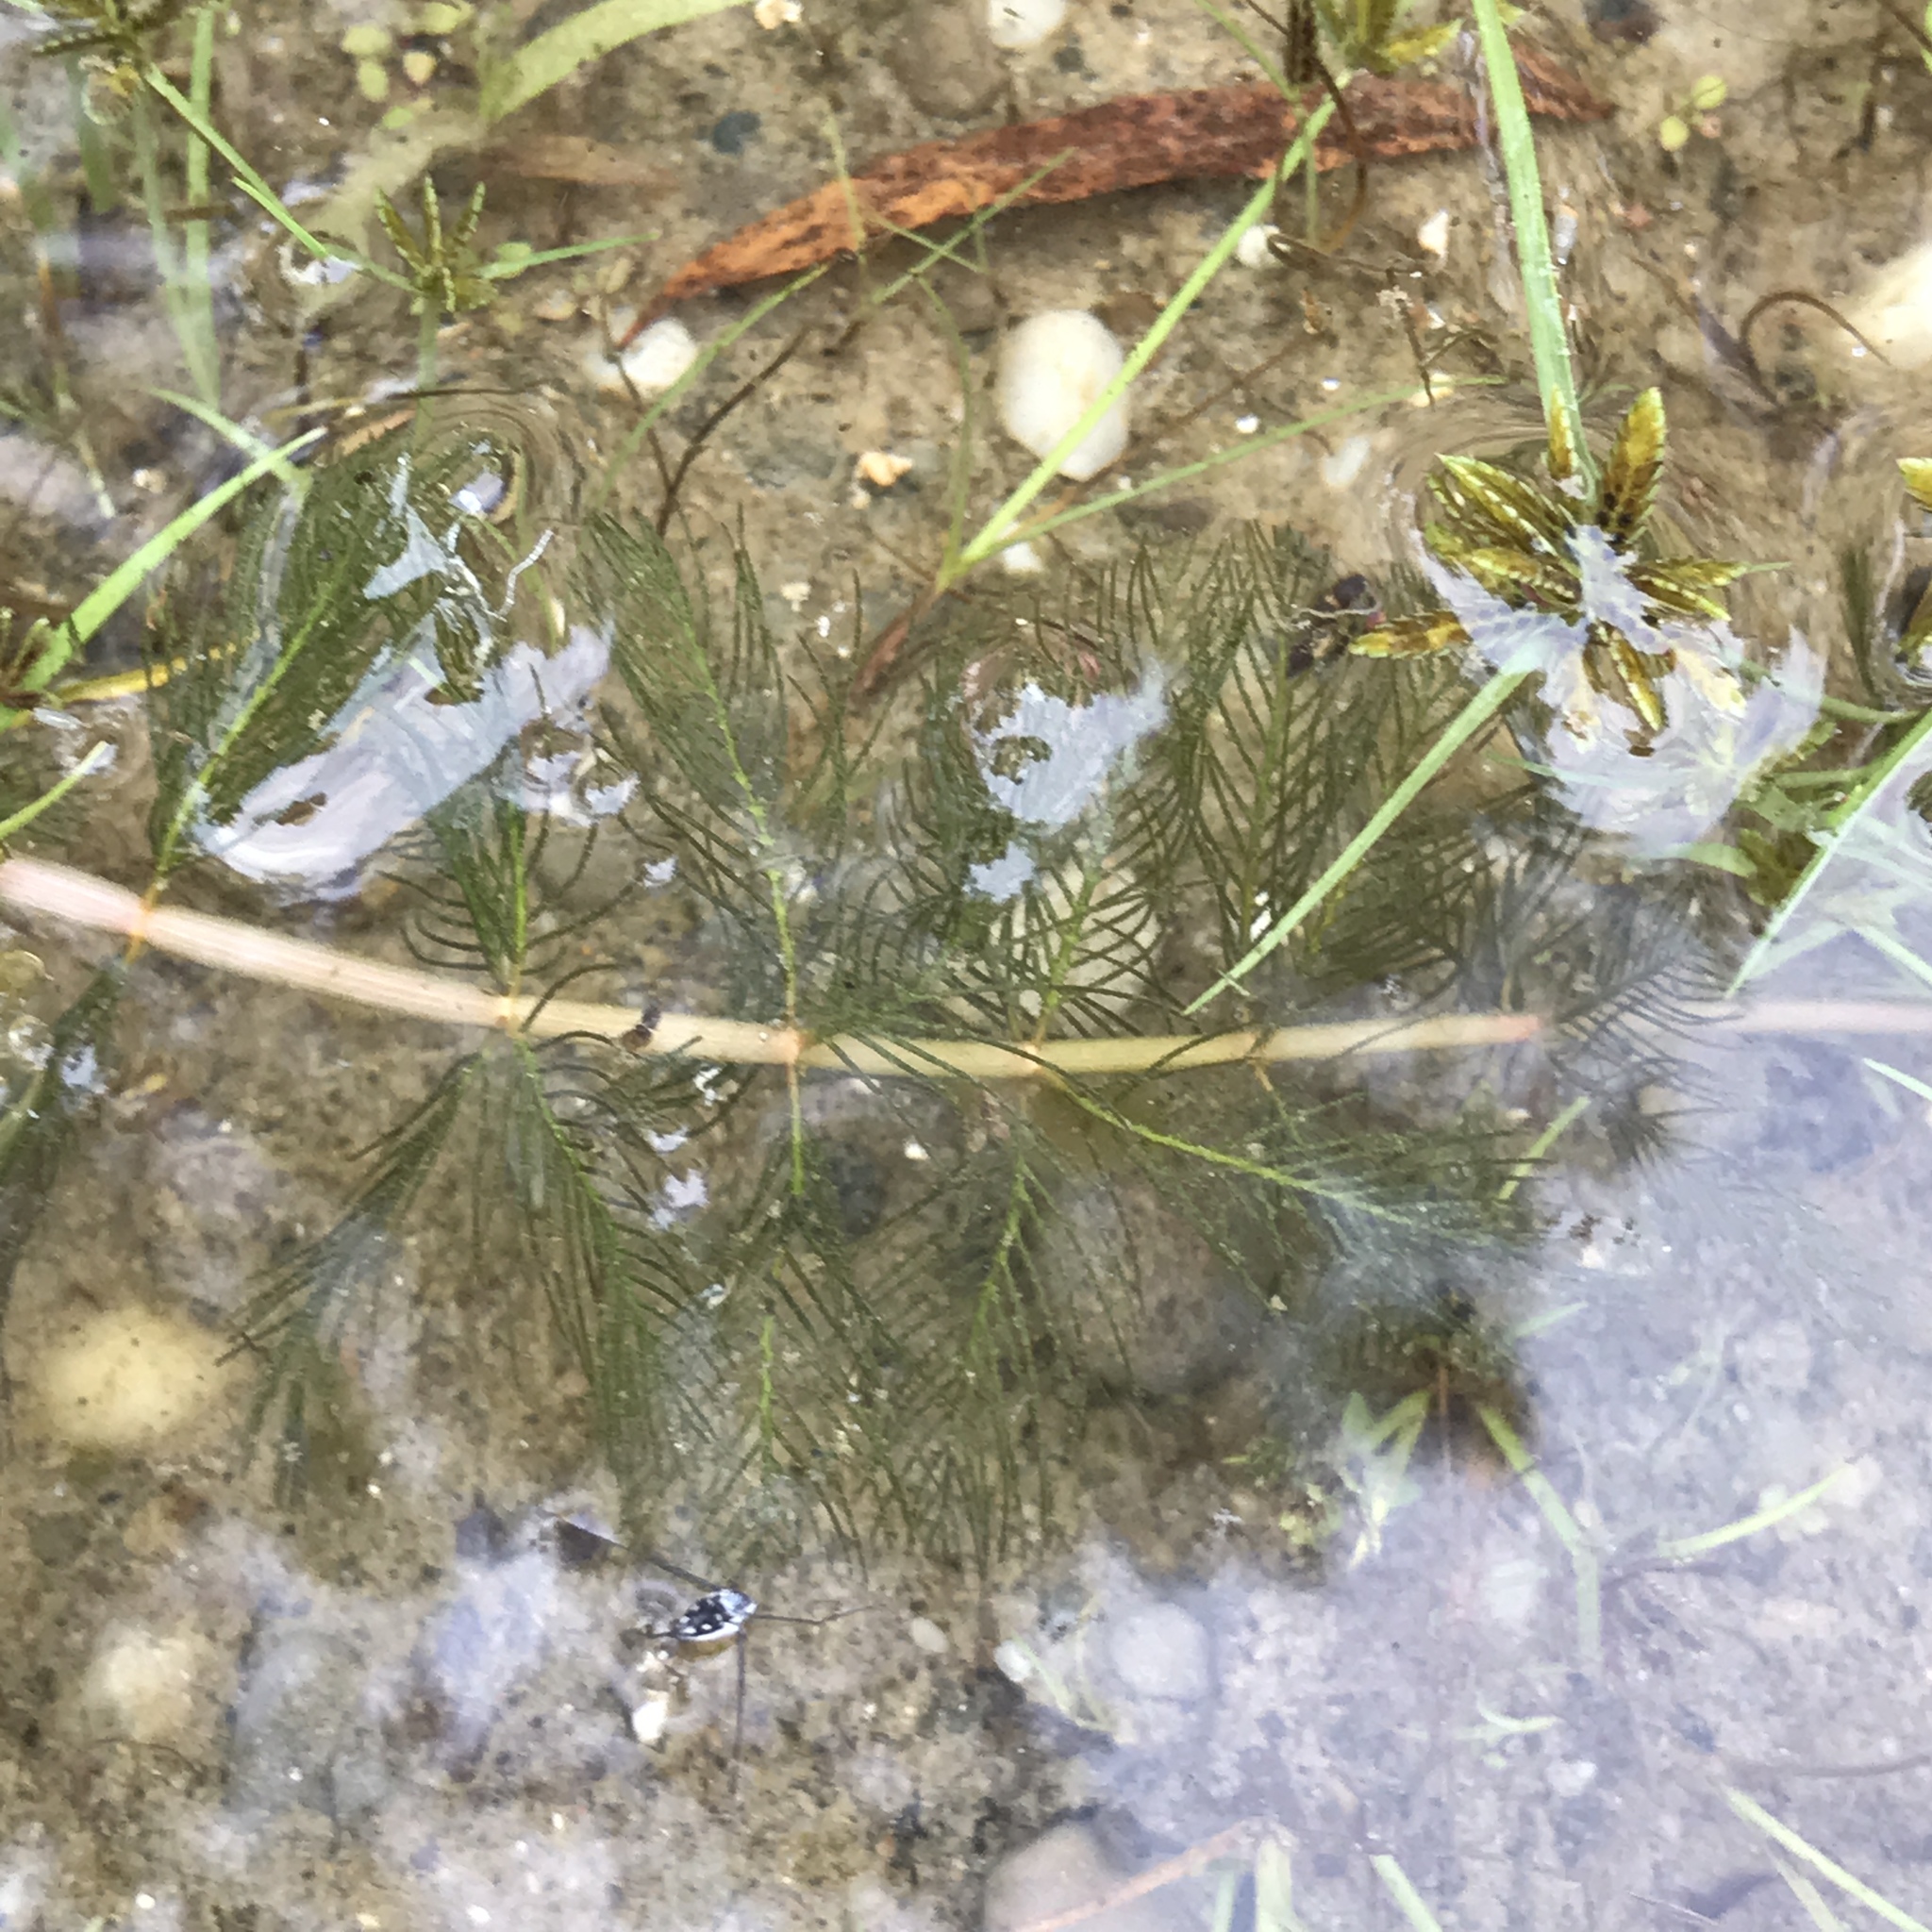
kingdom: Plantae
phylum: Tracheophyta
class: Magnoliopsida
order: Saxifragales
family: Haloragaceae
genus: Myriophyllum
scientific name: Myriophyllum spicatum
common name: Spiked water-milfoil
